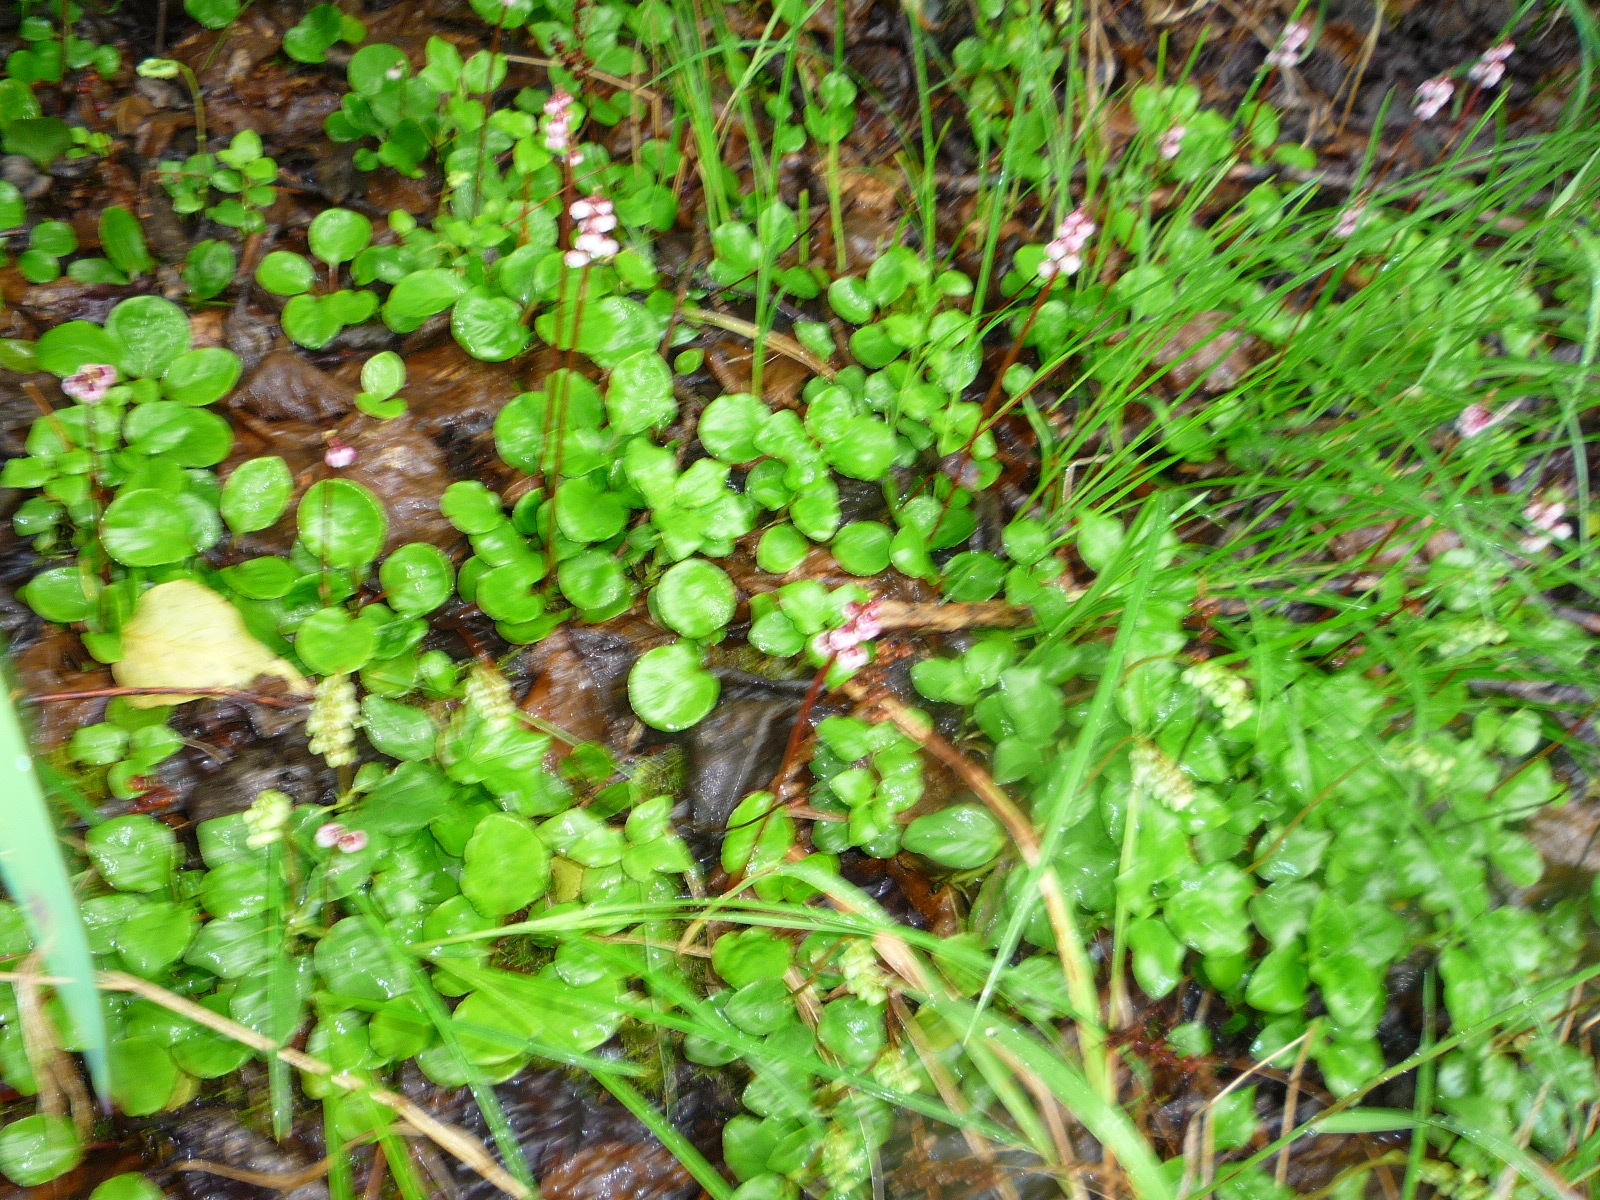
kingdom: Plantae
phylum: Tracheophyta
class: Magnoliopsida
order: Ericales
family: Ericaceae
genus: Pyrola
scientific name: Pyrola asarifolia
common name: Bog wintergreen
